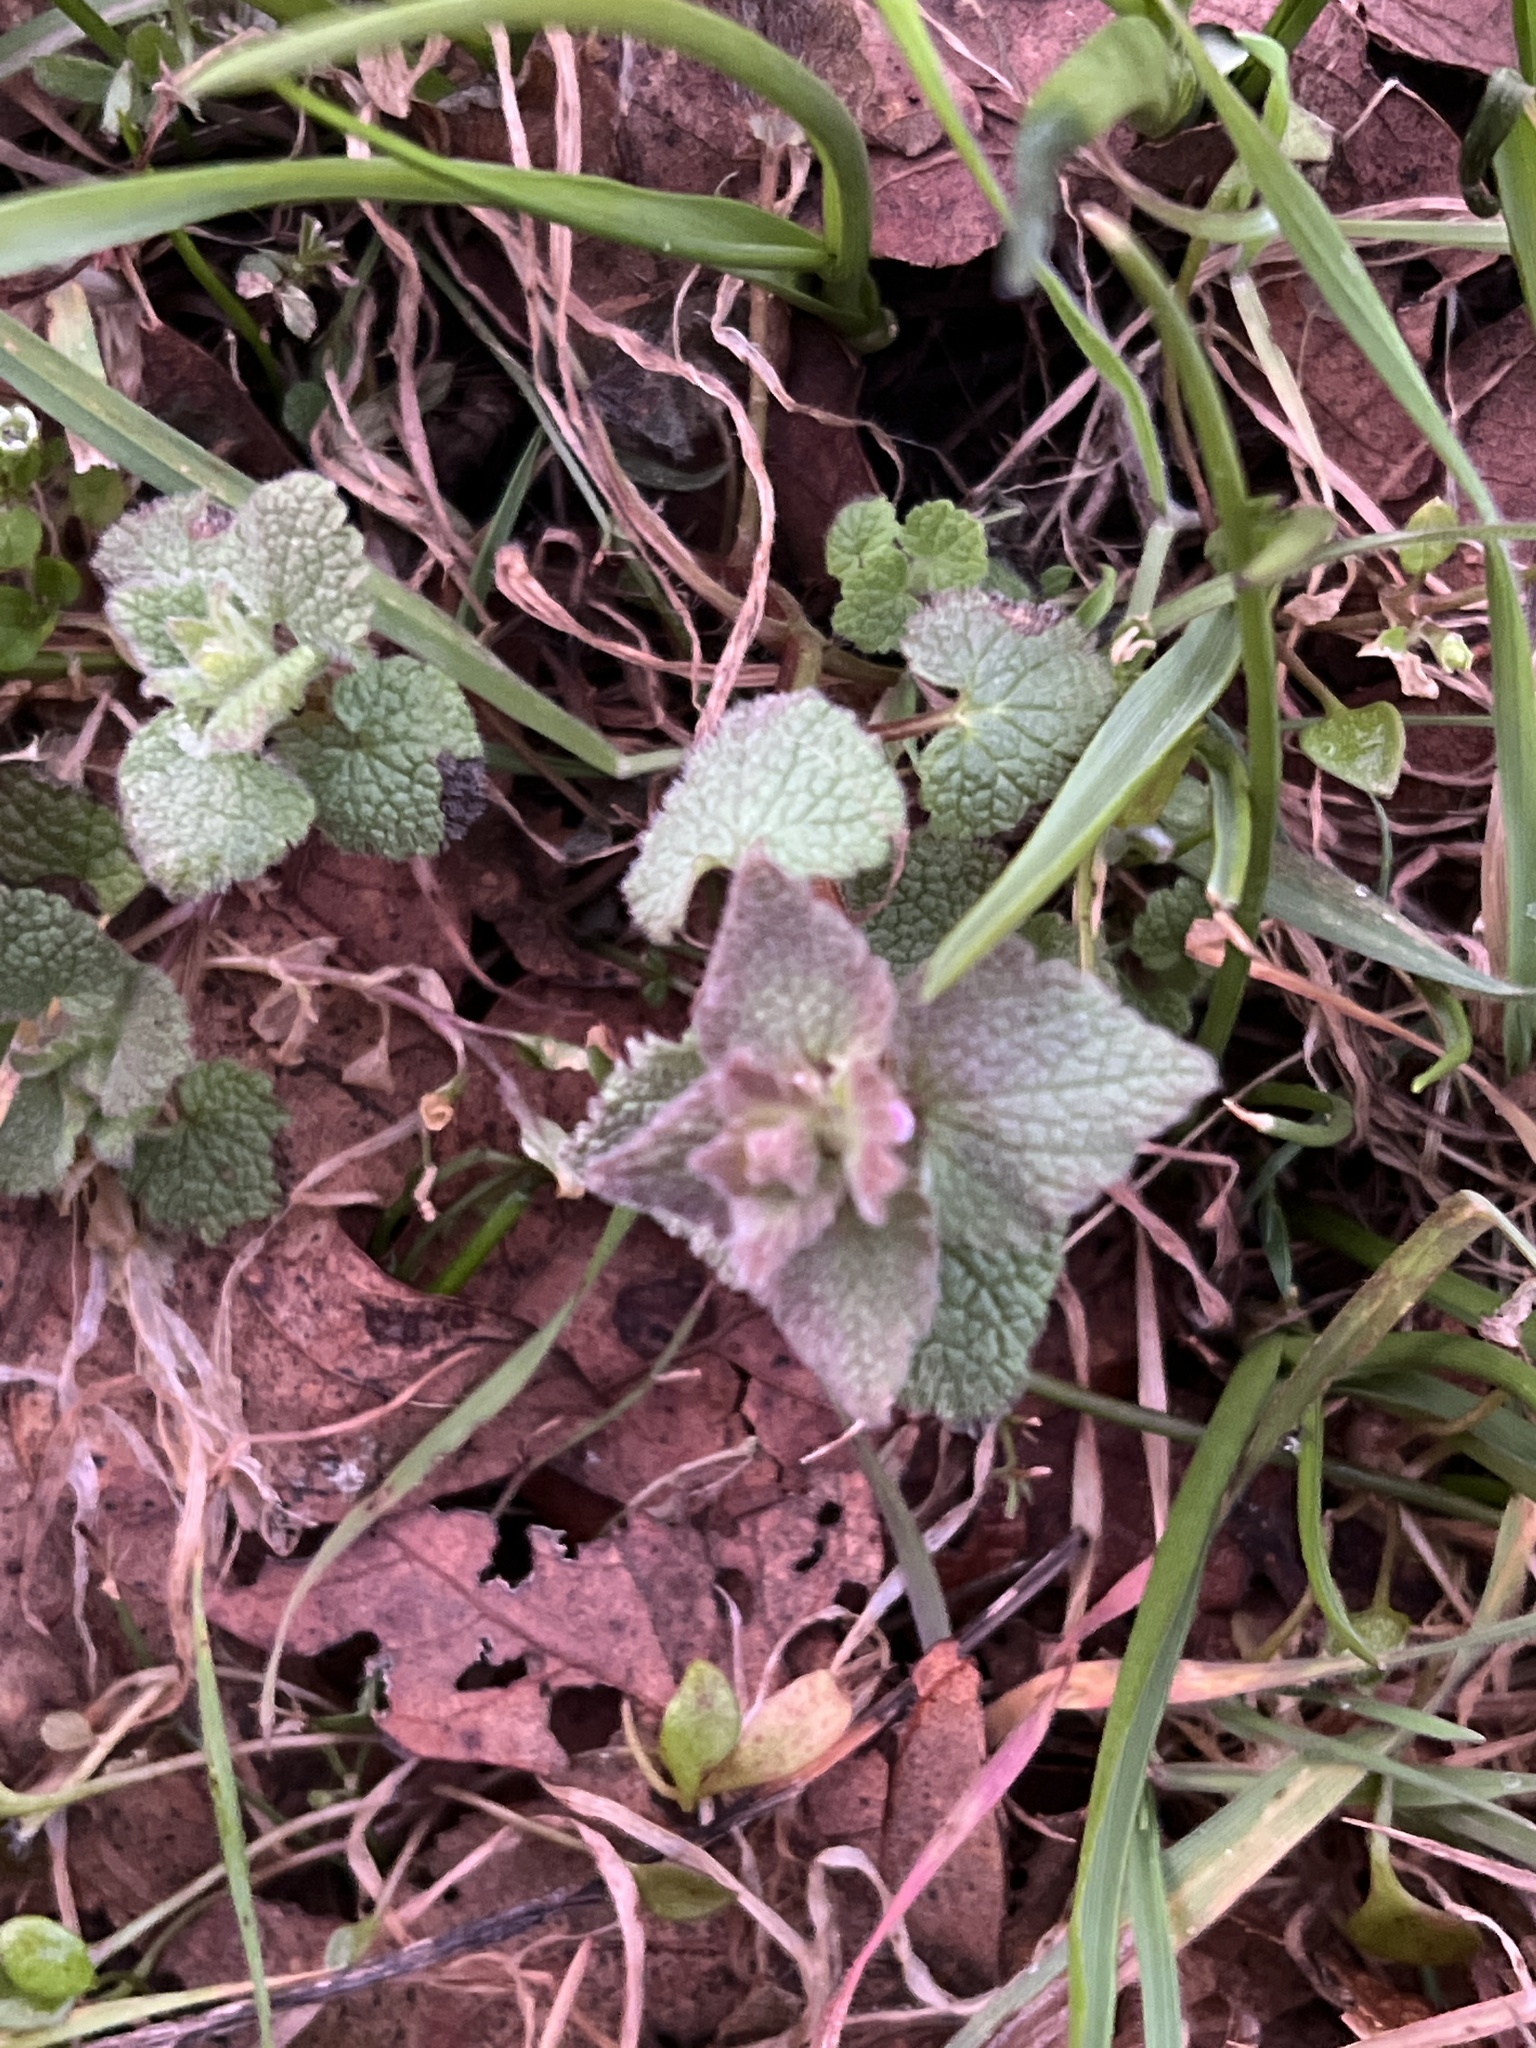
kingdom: Plantae
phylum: Tracheophyta
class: Magnoliopsida
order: Lamiales
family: Lamiaceae
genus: Lamium
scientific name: Lamium purpureum
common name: Red dead-nettle
